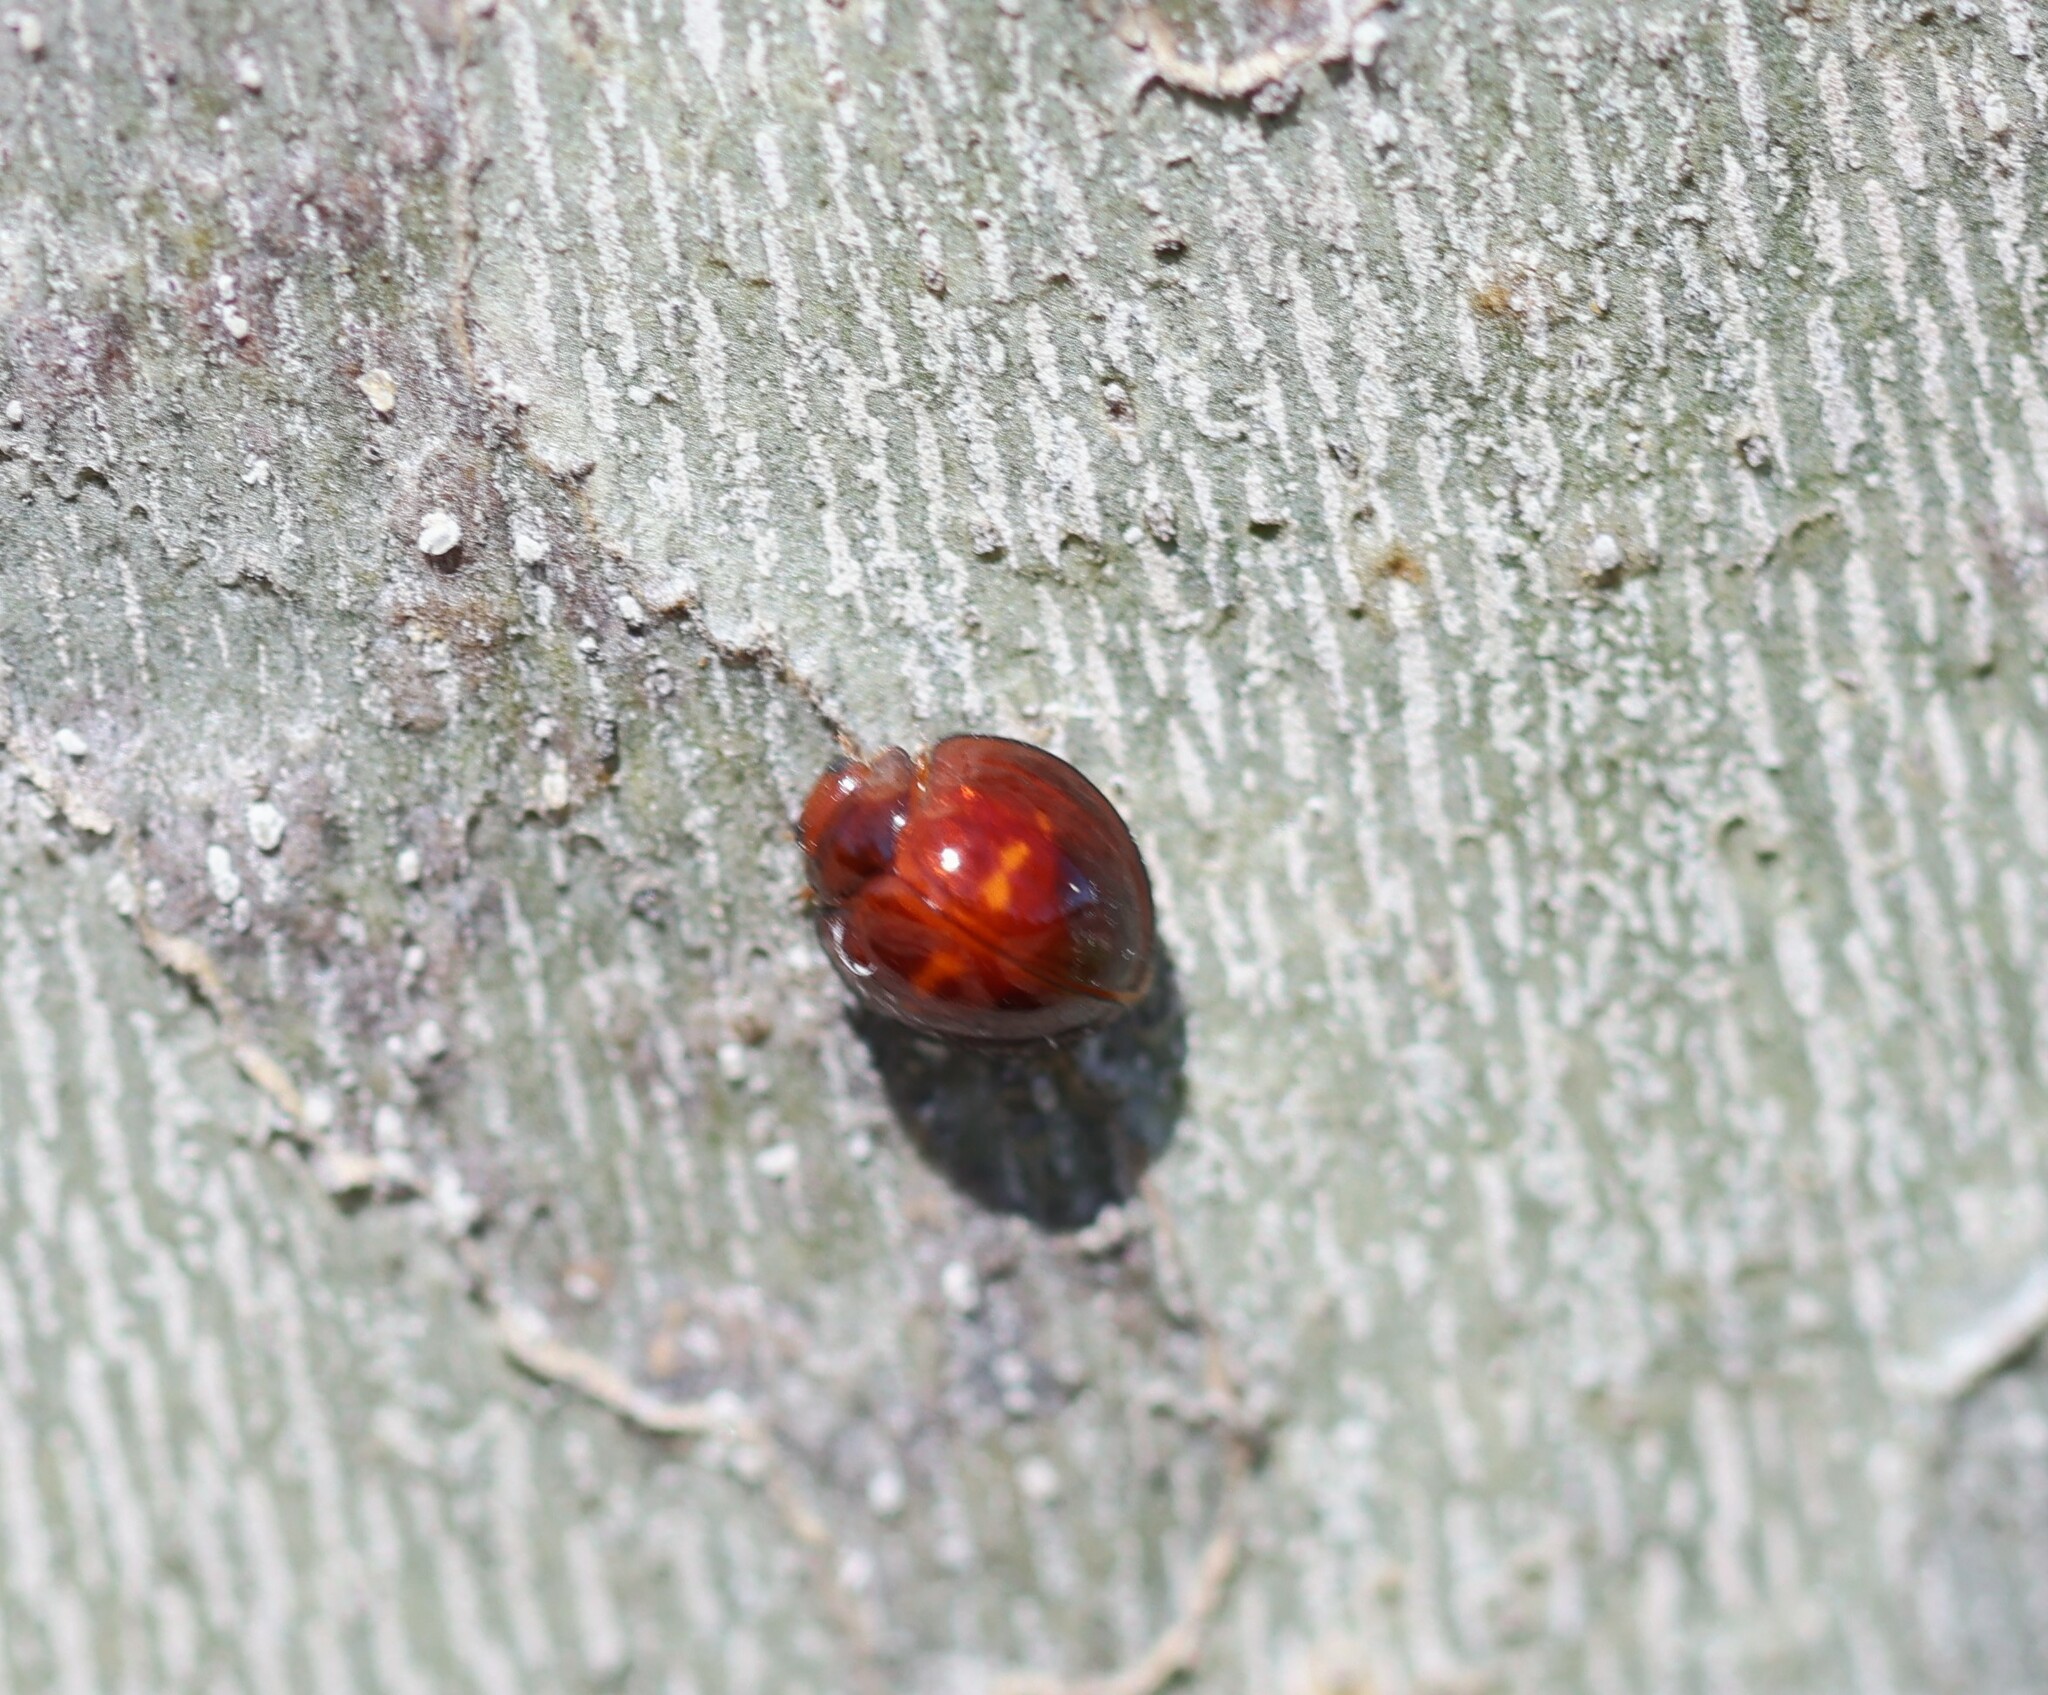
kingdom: Animalia
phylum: Arthropoda
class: Insecta
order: Coleoptera
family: Coccinellidae
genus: Chilocorus
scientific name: Chilocorus bipustulatus
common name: Heather ladybird
